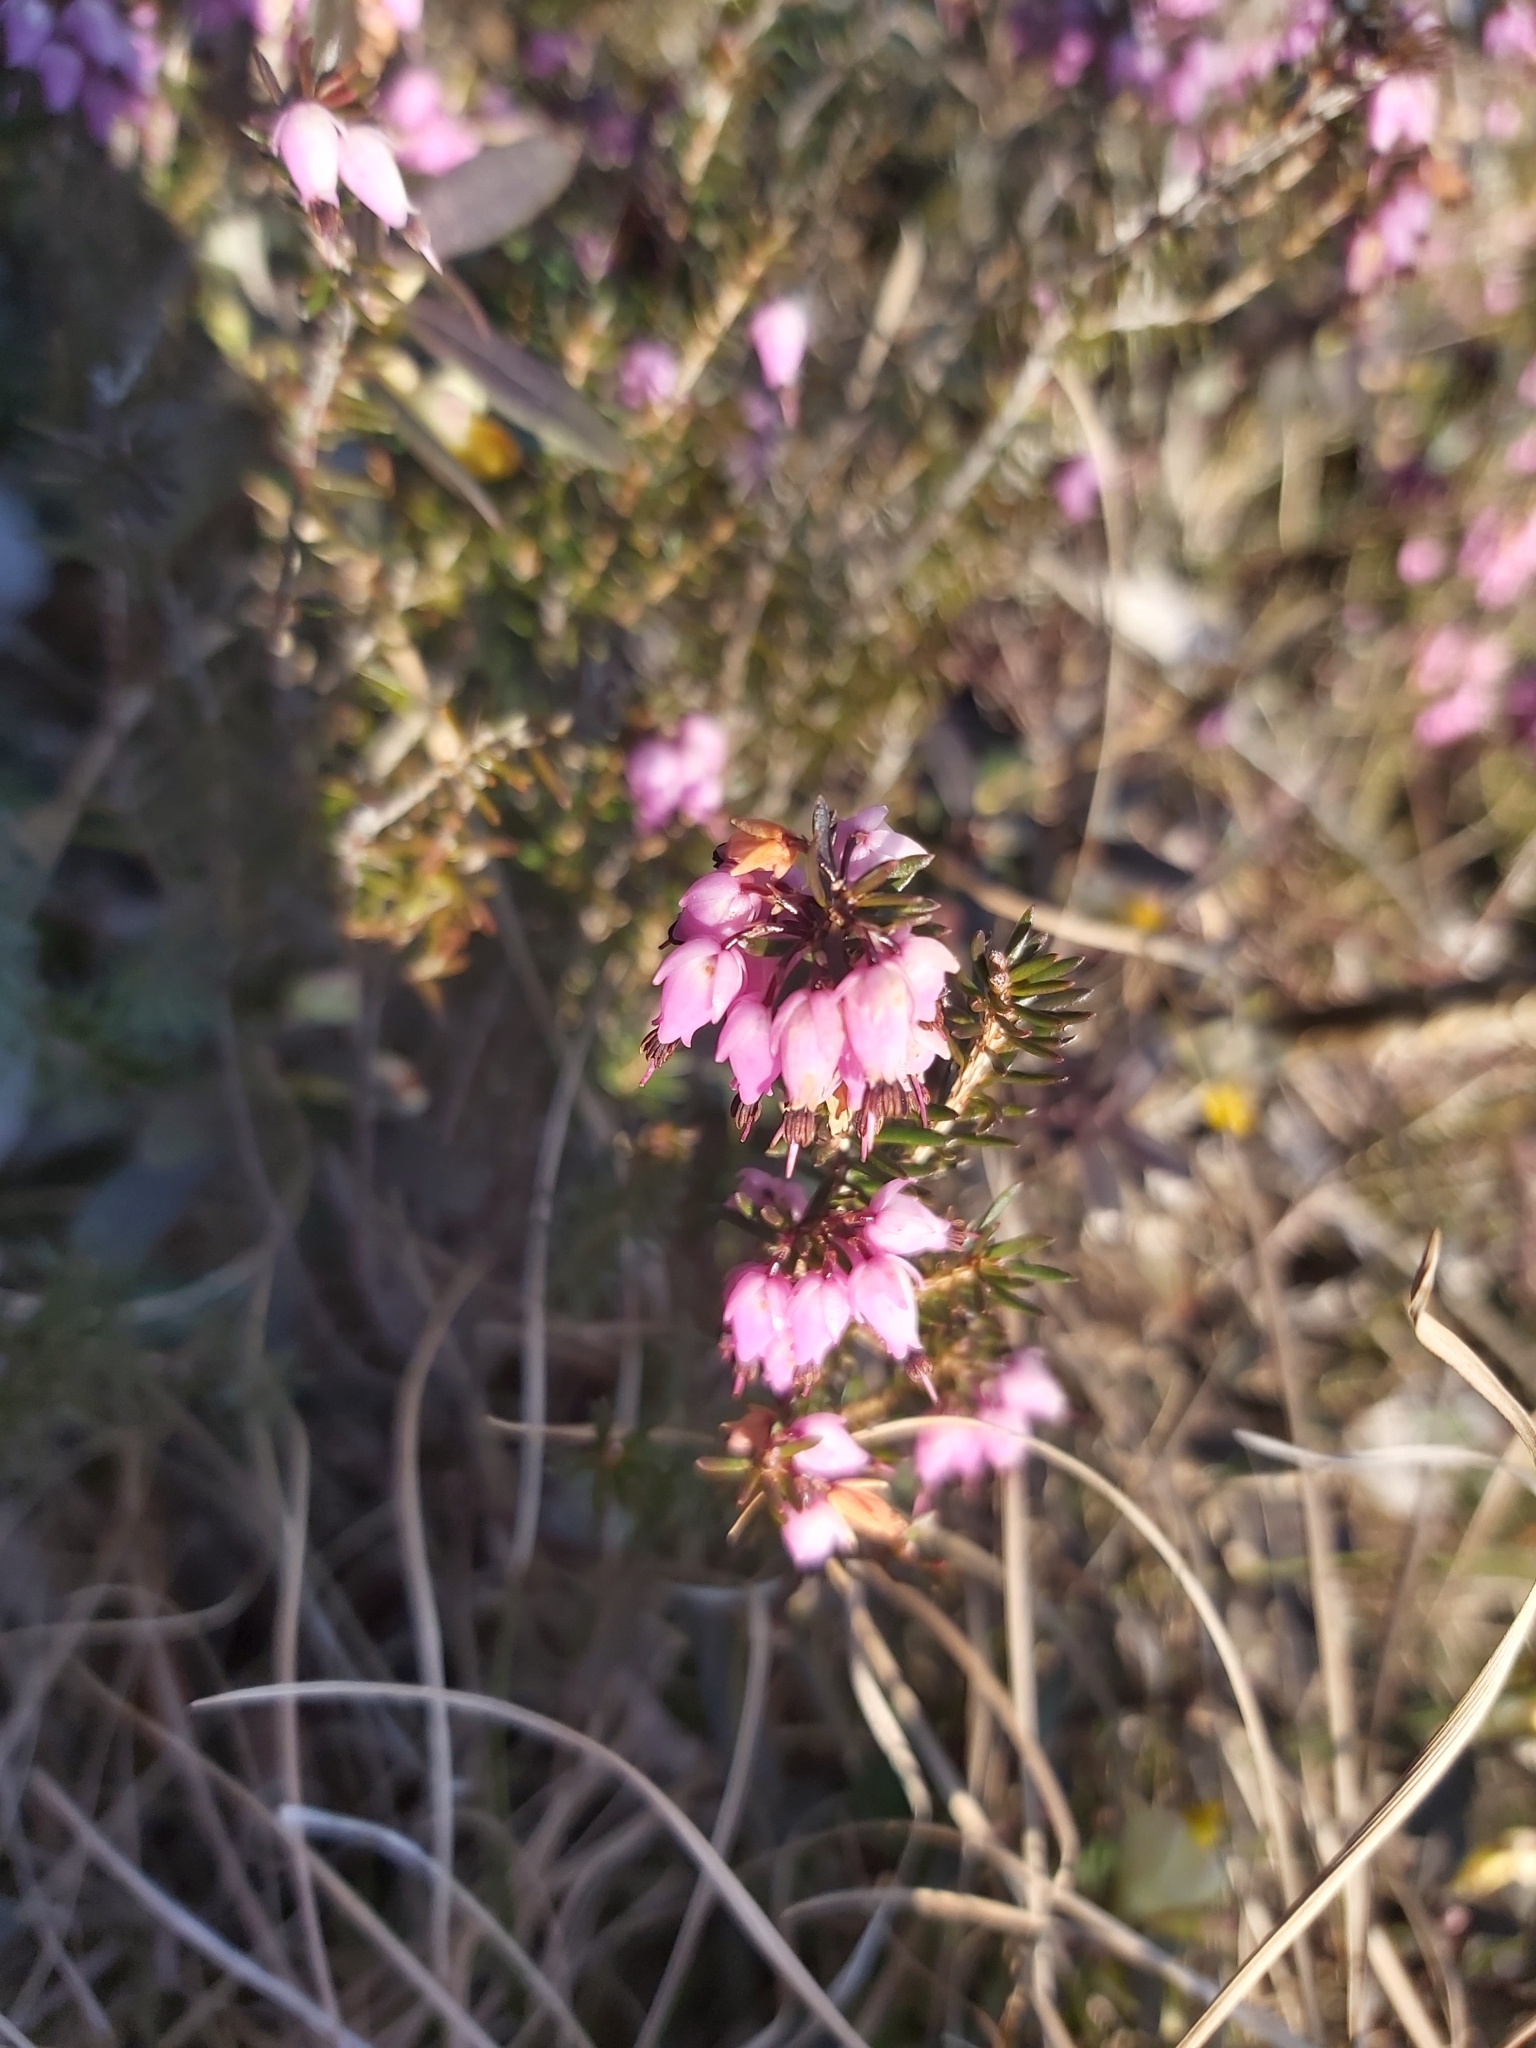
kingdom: Plantae
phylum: Tracheophyta
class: Magnoliopsida
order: Ericales
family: Ericaceae
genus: Erica
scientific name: Erica carnea
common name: Winter heath
